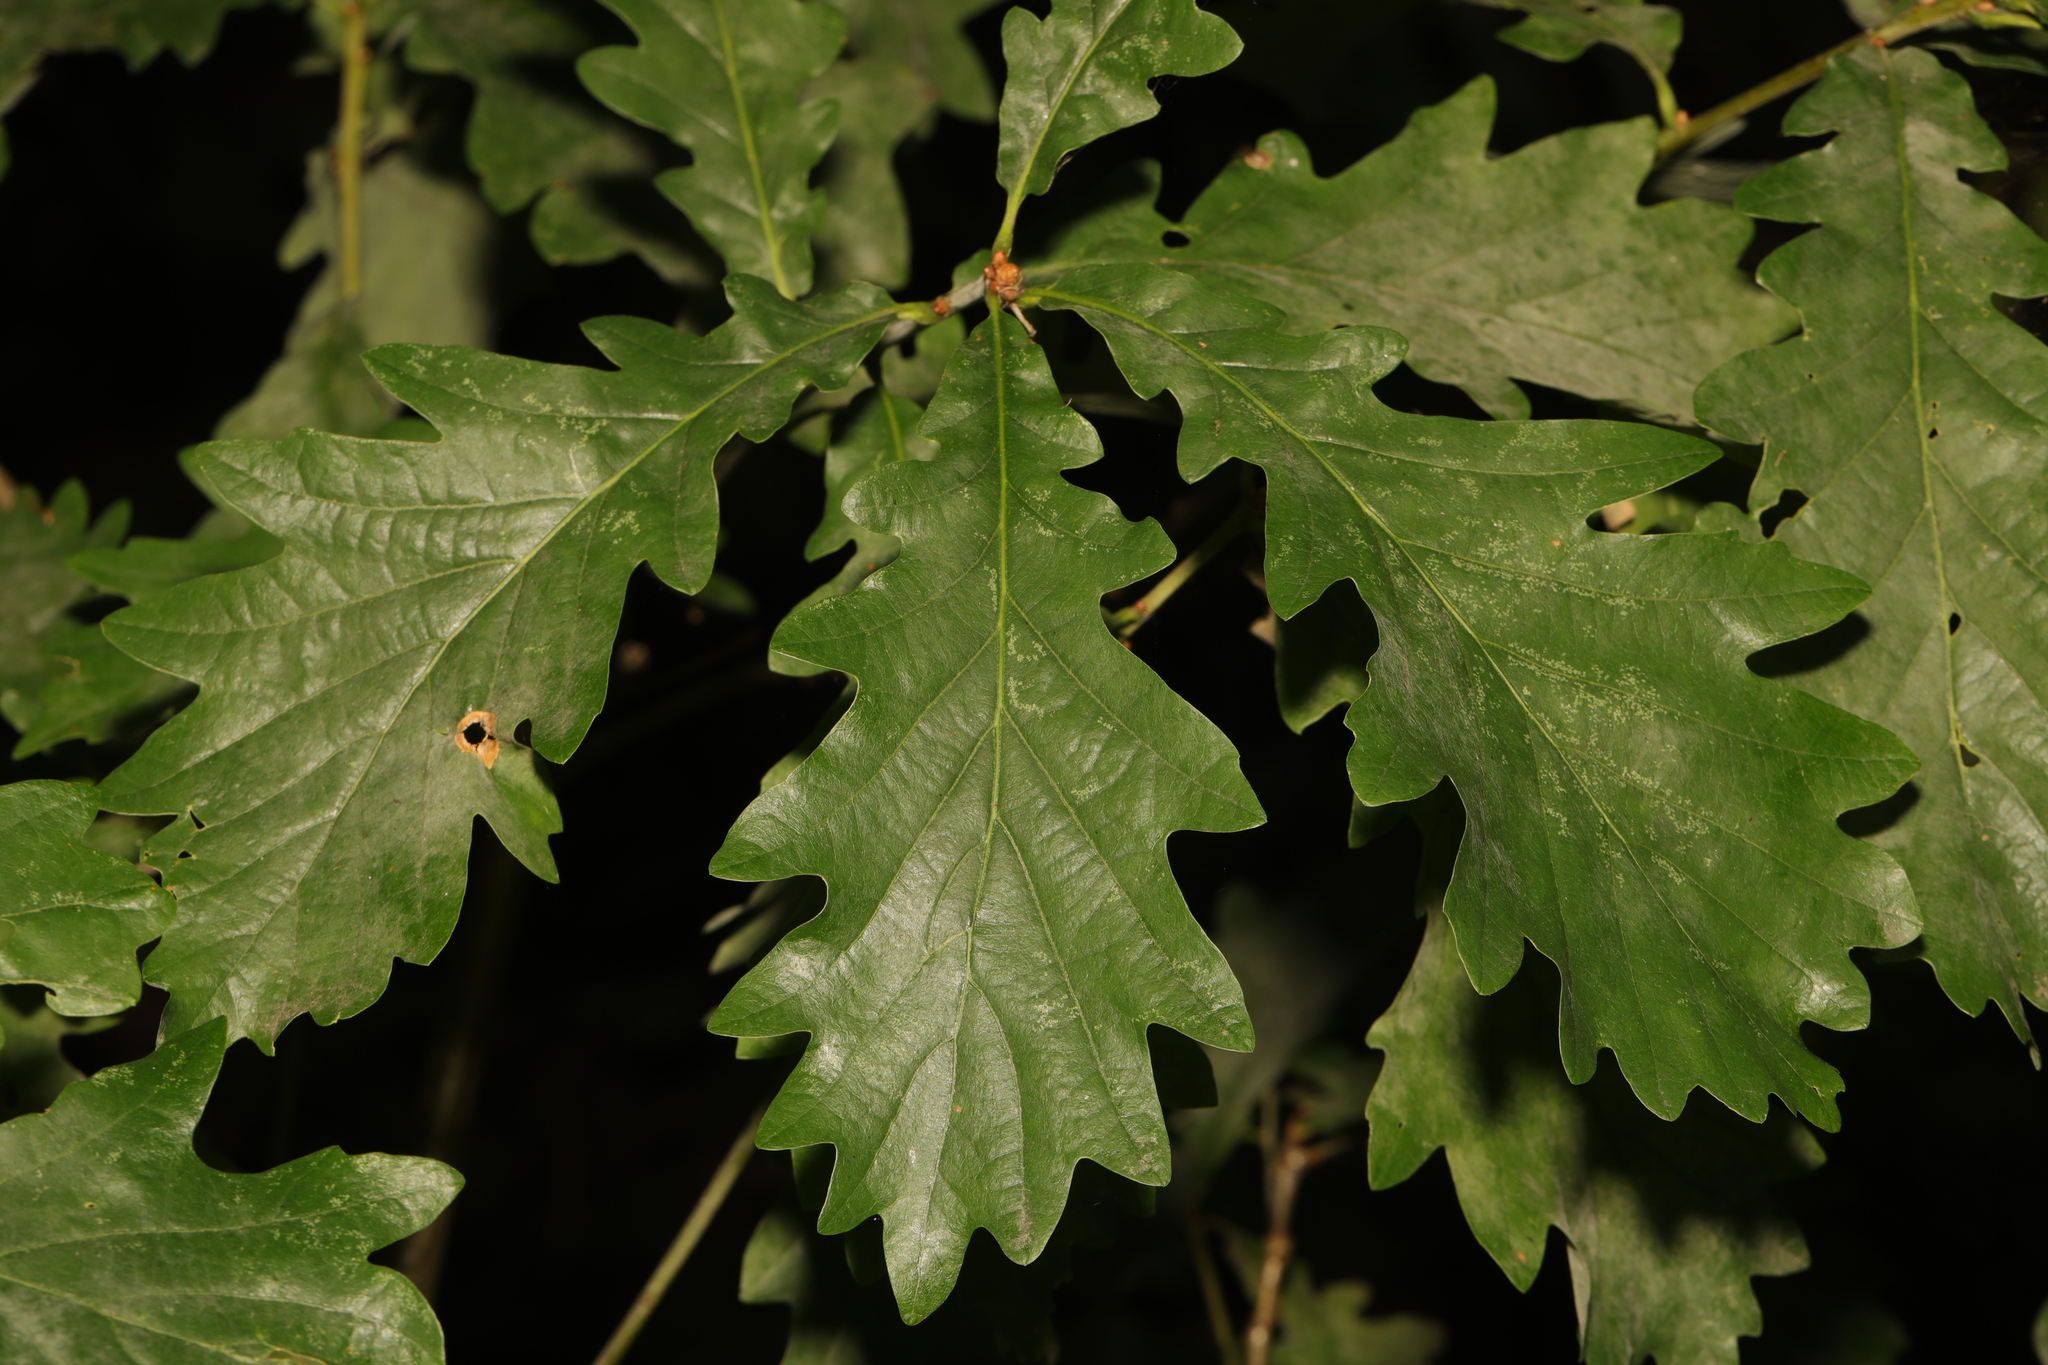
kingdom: Plantae
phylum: Tracheophyta
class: Magnoliopsida
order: Fagales
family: Fagaceae
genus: Quercus
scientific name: Quercus cerris
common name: Turkey oak
